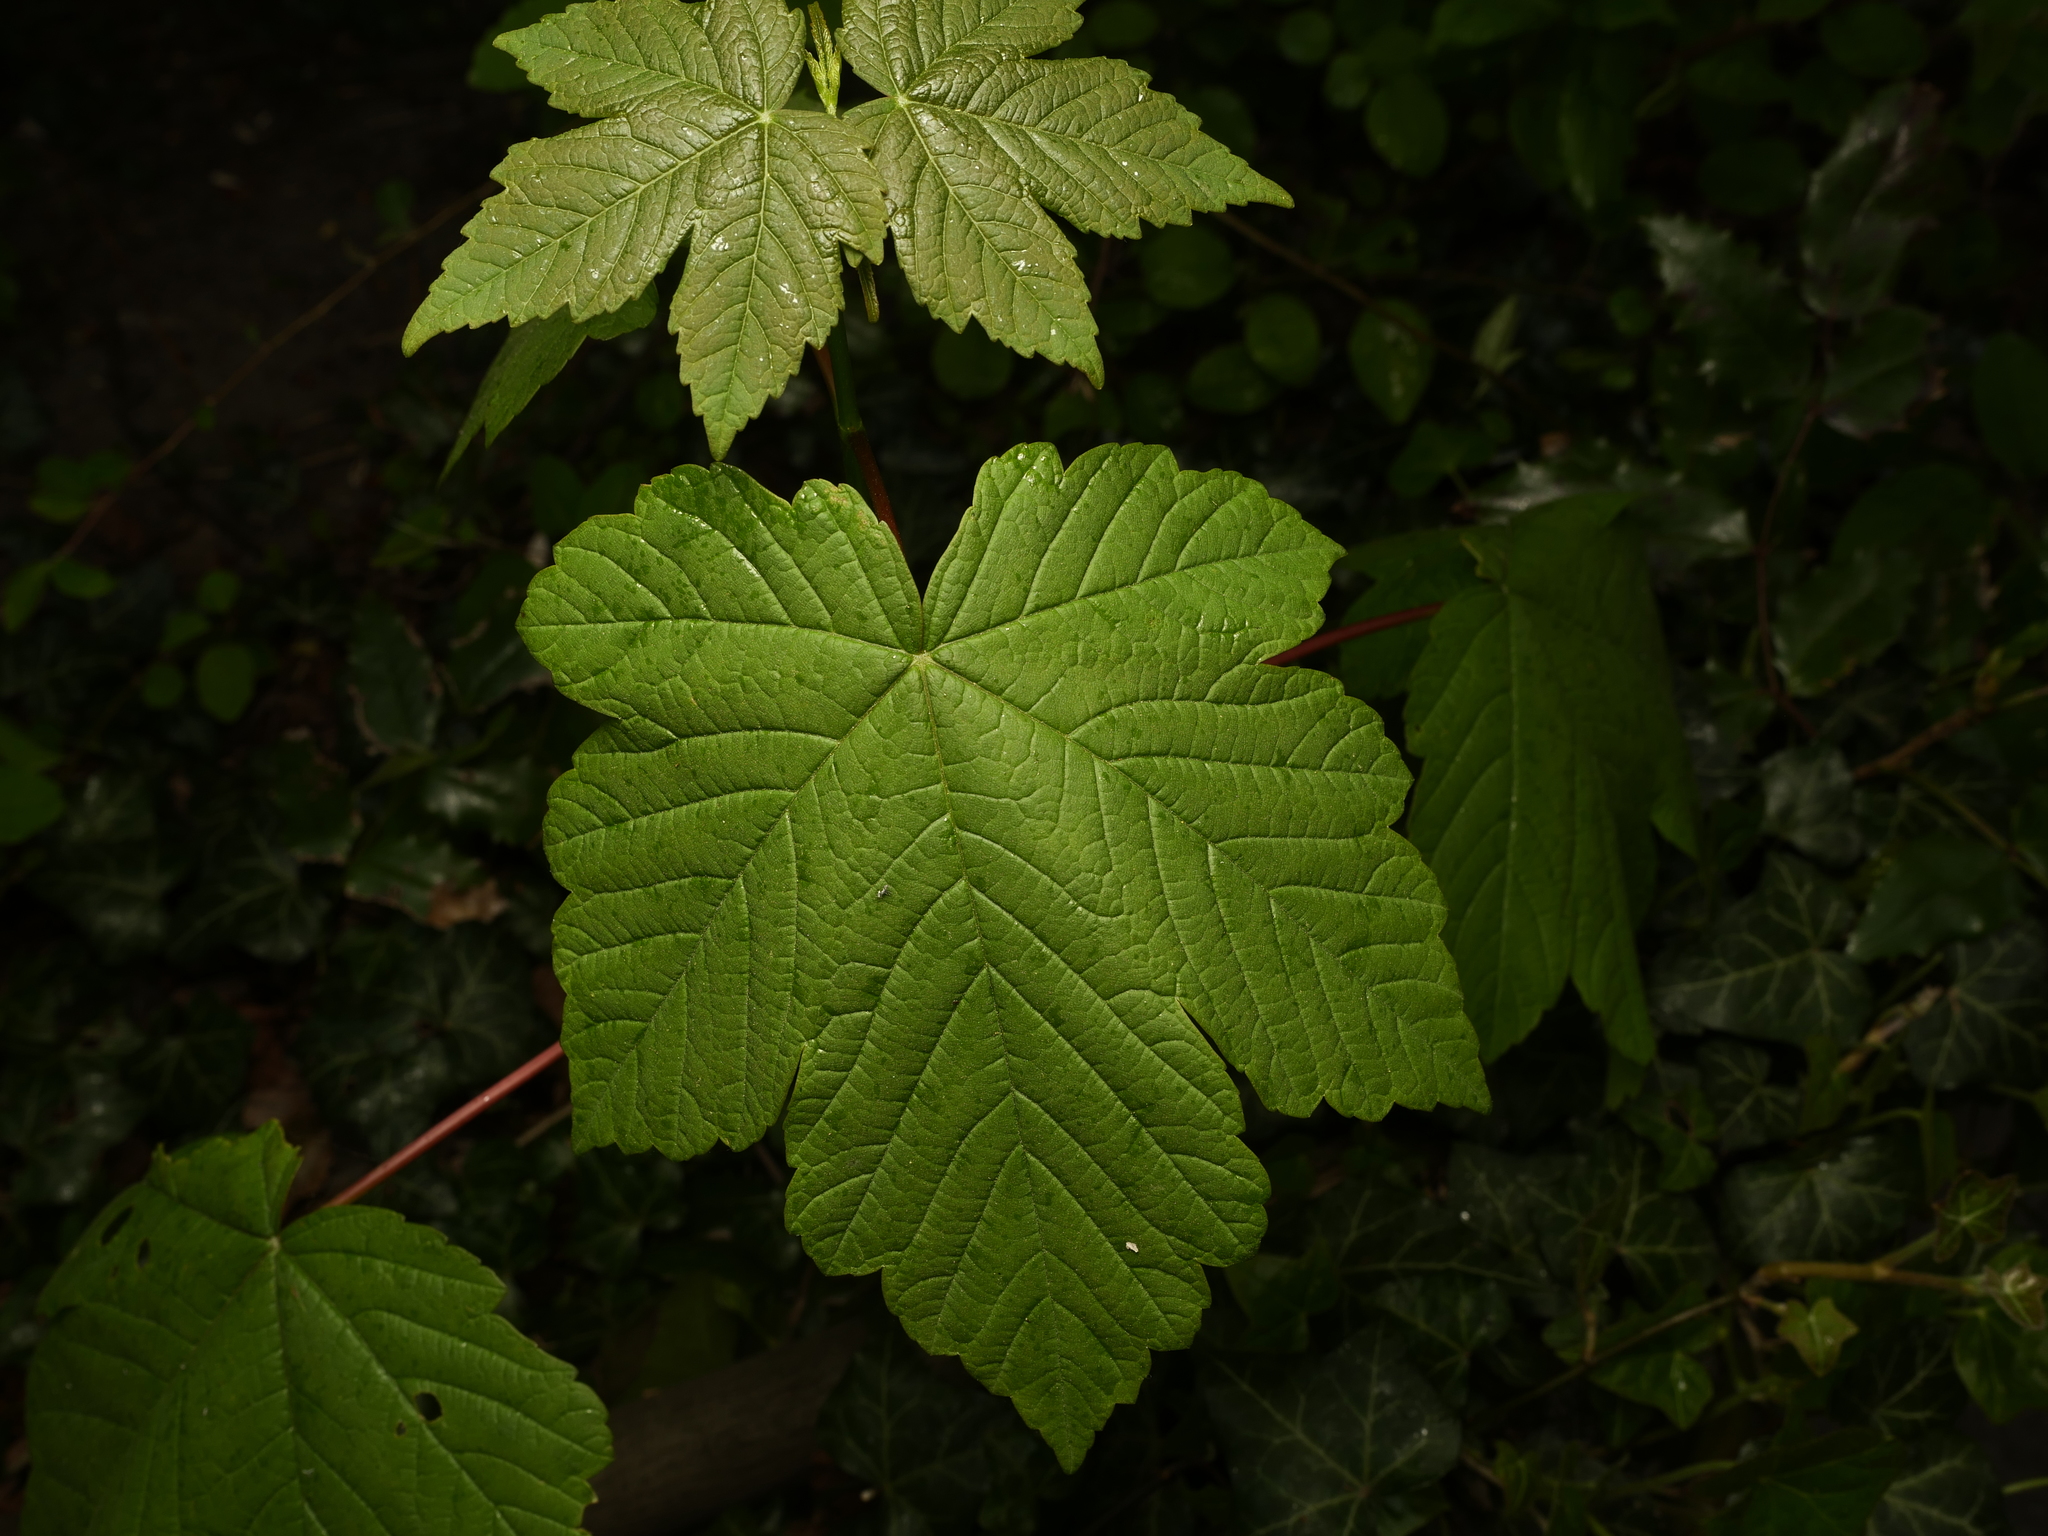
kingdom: Plantae
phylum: Tracheophyta
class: Magnoliopsida
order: Sapindales
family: Sapindaceae
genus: Acer
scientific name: Acer pseudoplatanus
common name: Sycamore
